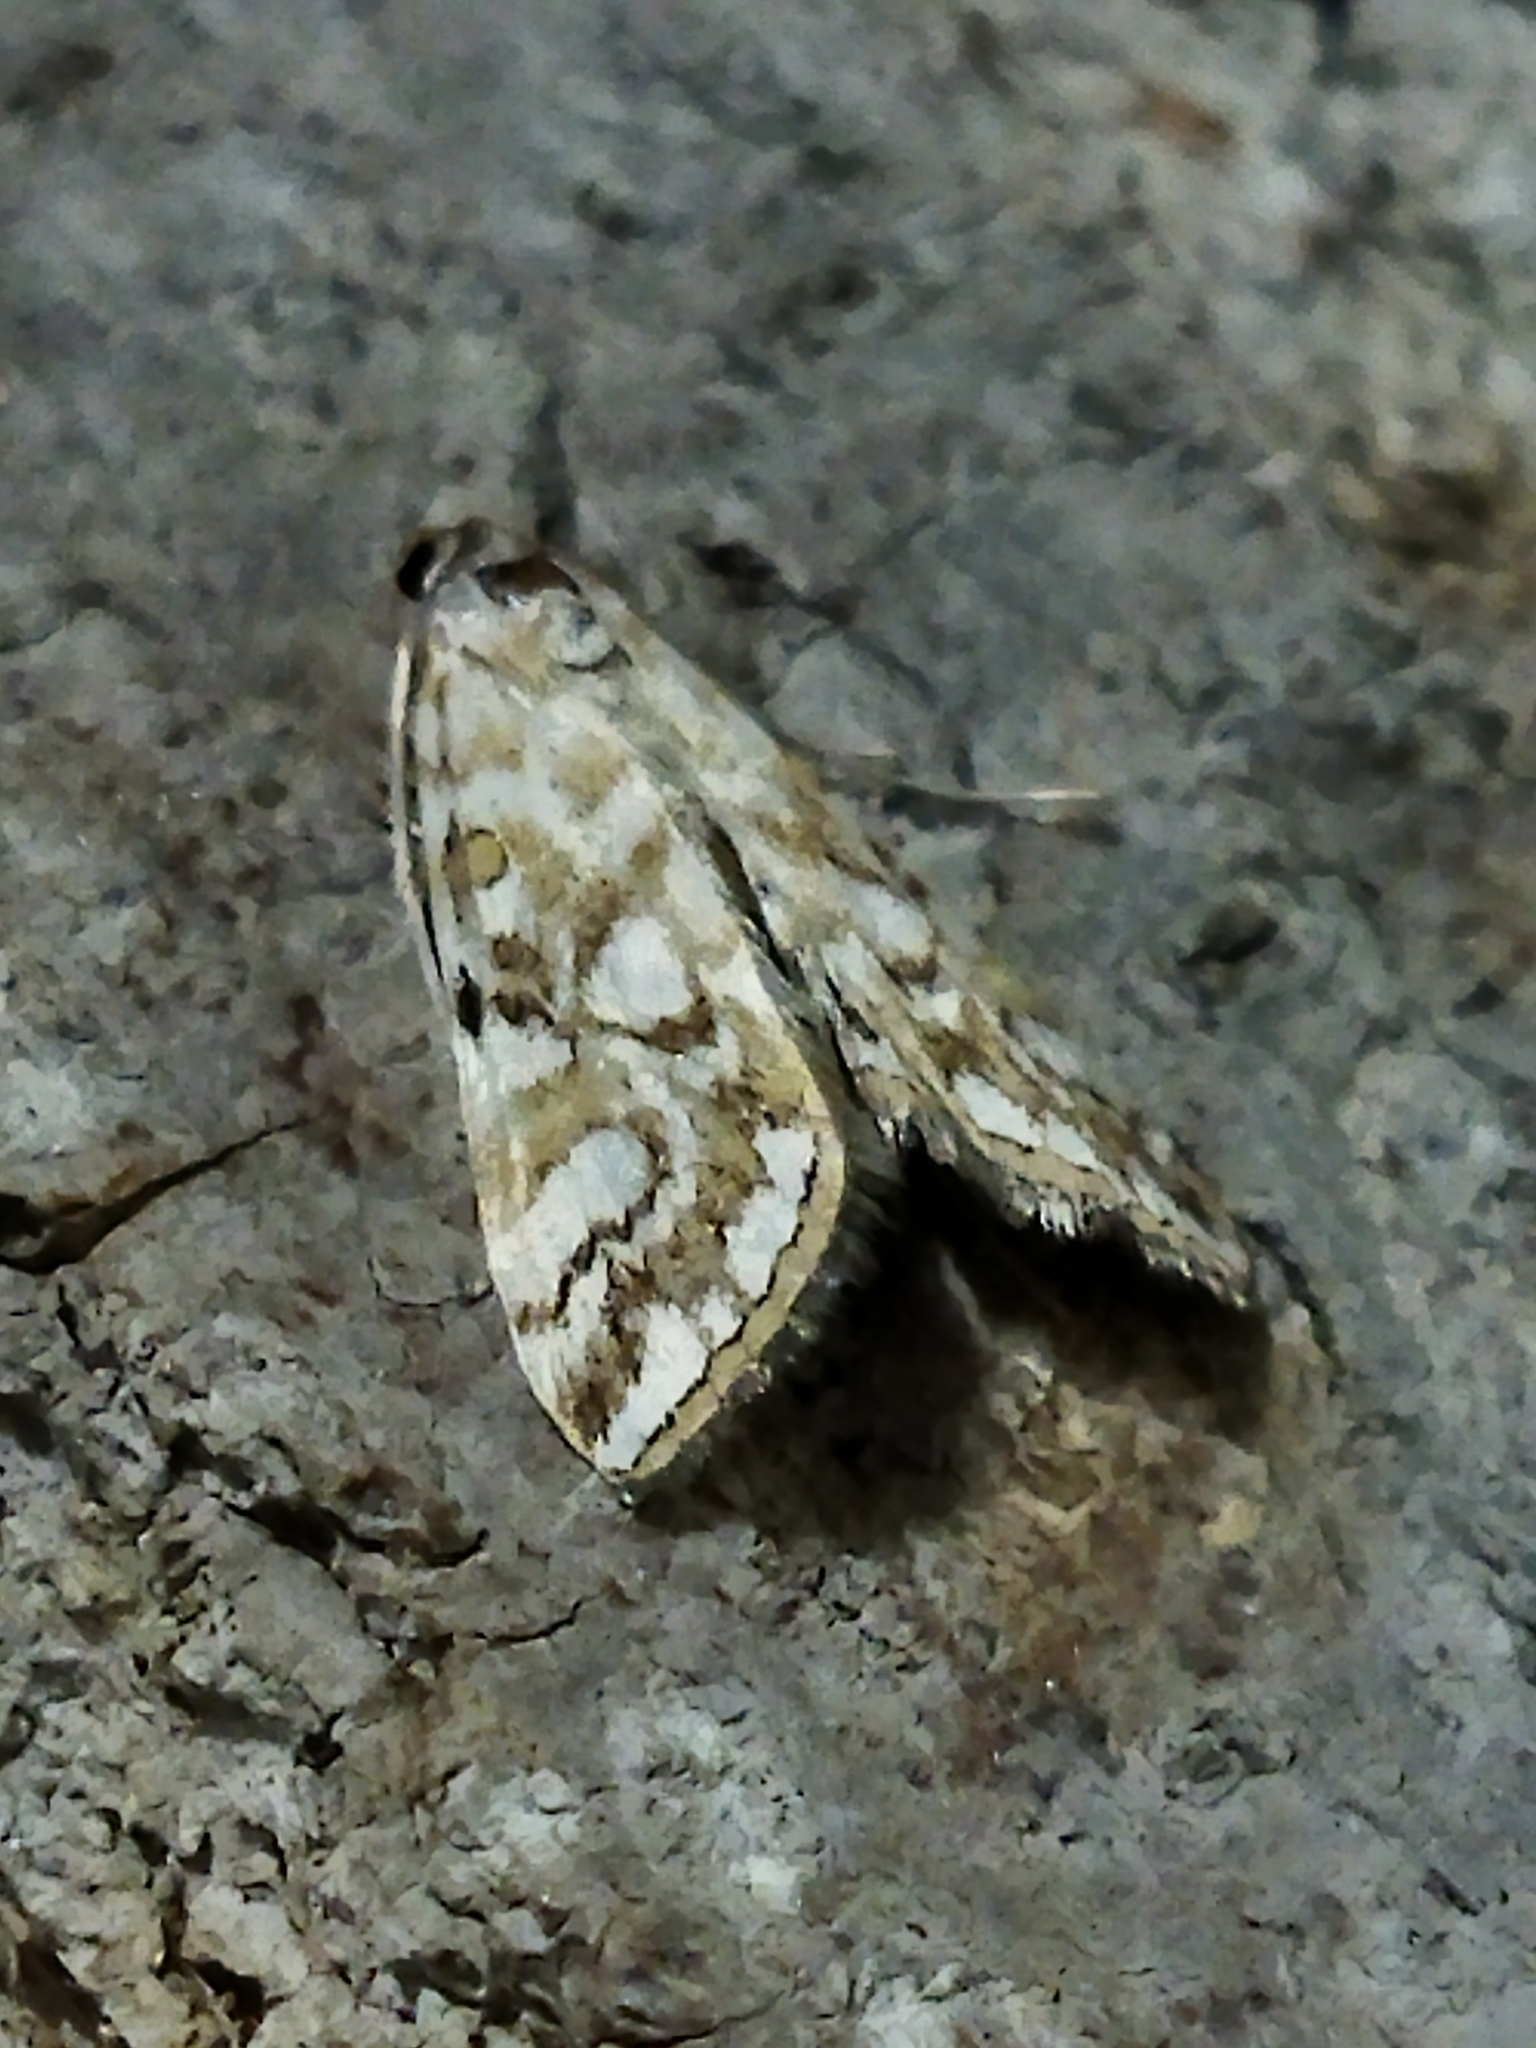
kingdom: Animalia
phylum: Arthropoda
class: Insecta
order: Lepidoptera
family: Crambidae
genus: Elophila
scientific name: Elophila nymphaeata
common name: Brown china-mark
